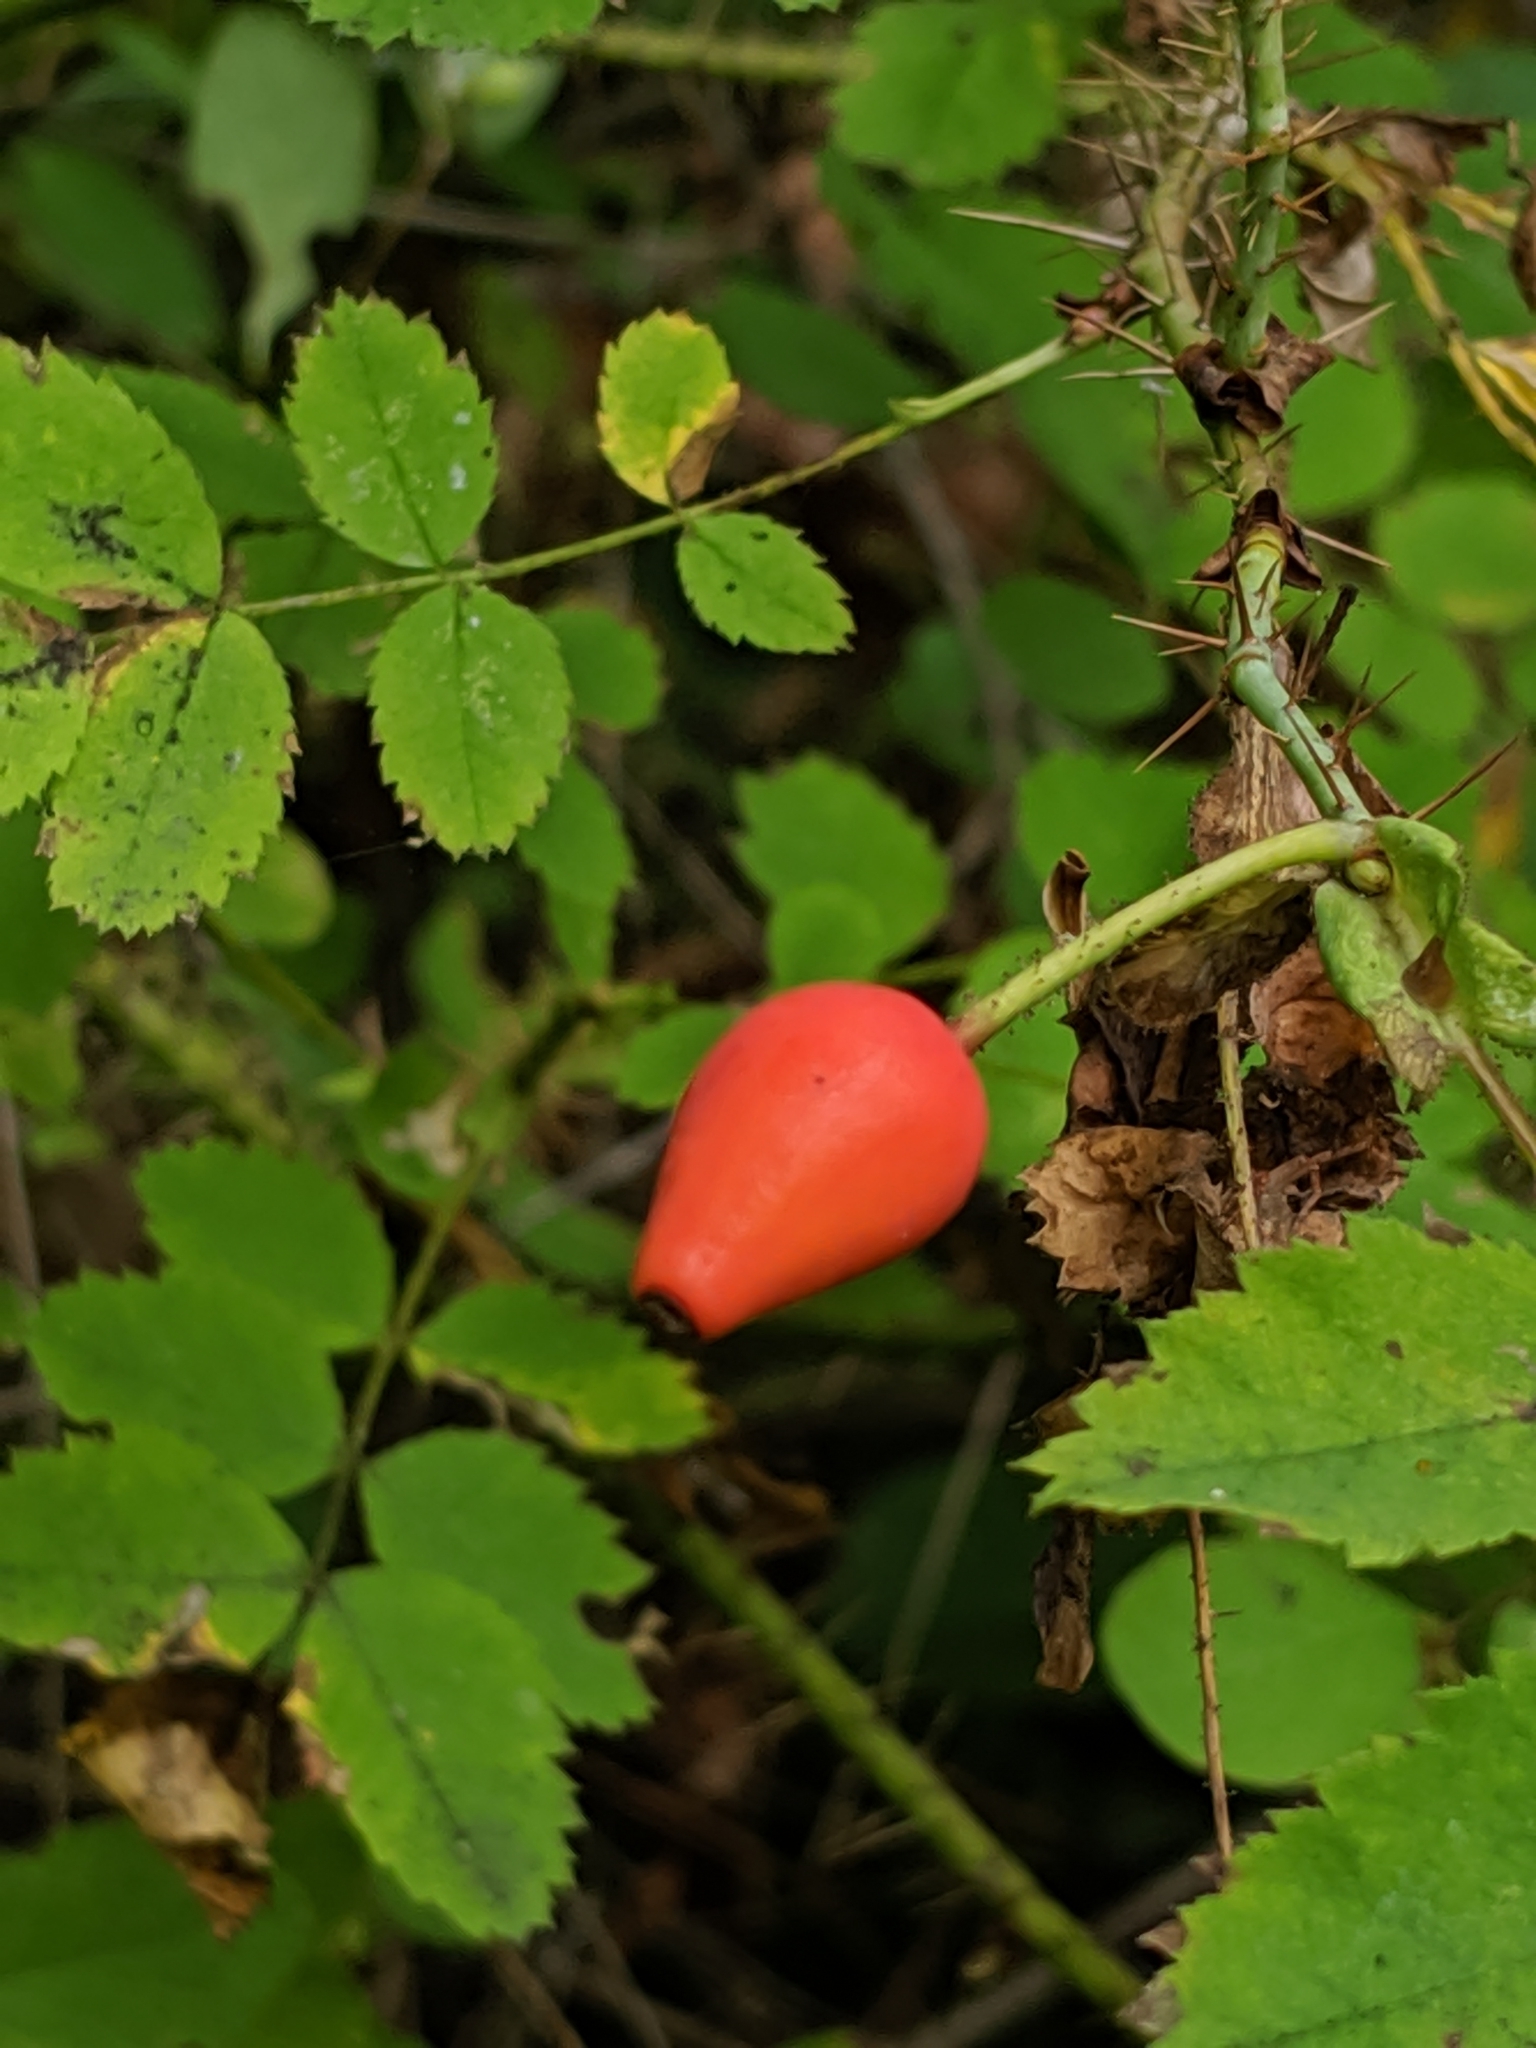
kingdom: Plantae
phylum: Tracheophyta
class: Magnoliopsida
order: Rosales
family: Rosaceae
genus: Rosa
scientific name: Rosa gymnocarpa
